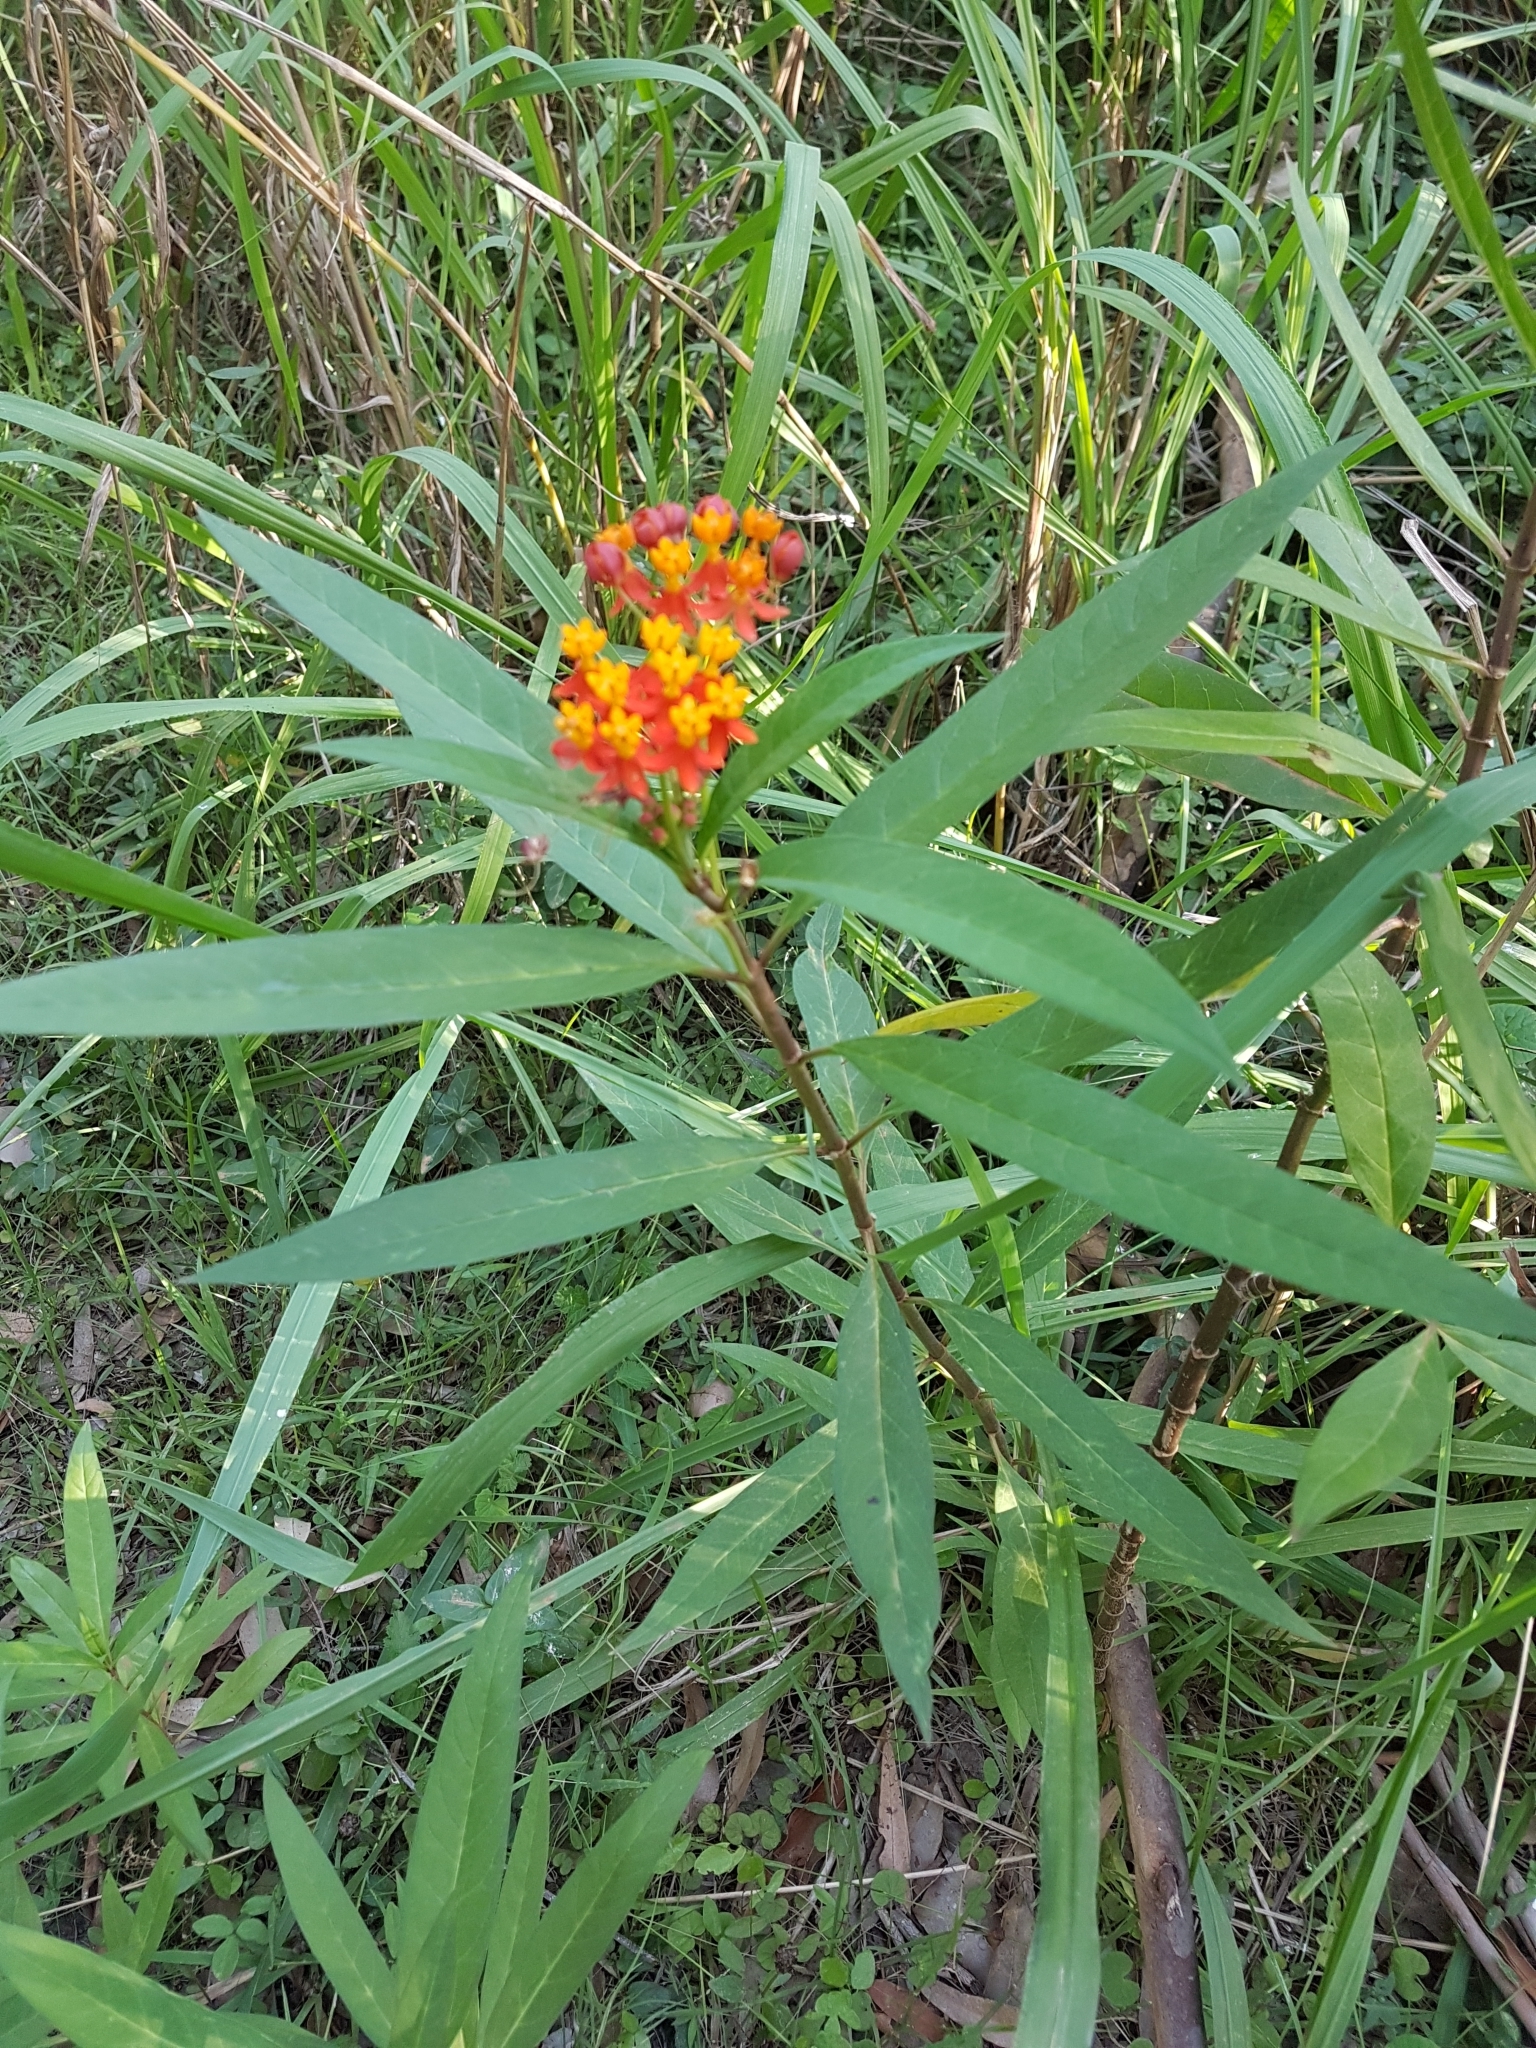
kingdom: Plantae
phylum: Tracheophyta
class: Magnoliopsida
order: Gentianales
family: Apocynaceae
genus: Asclepias
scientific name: Asclepias curassavica
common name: Bloodflower
